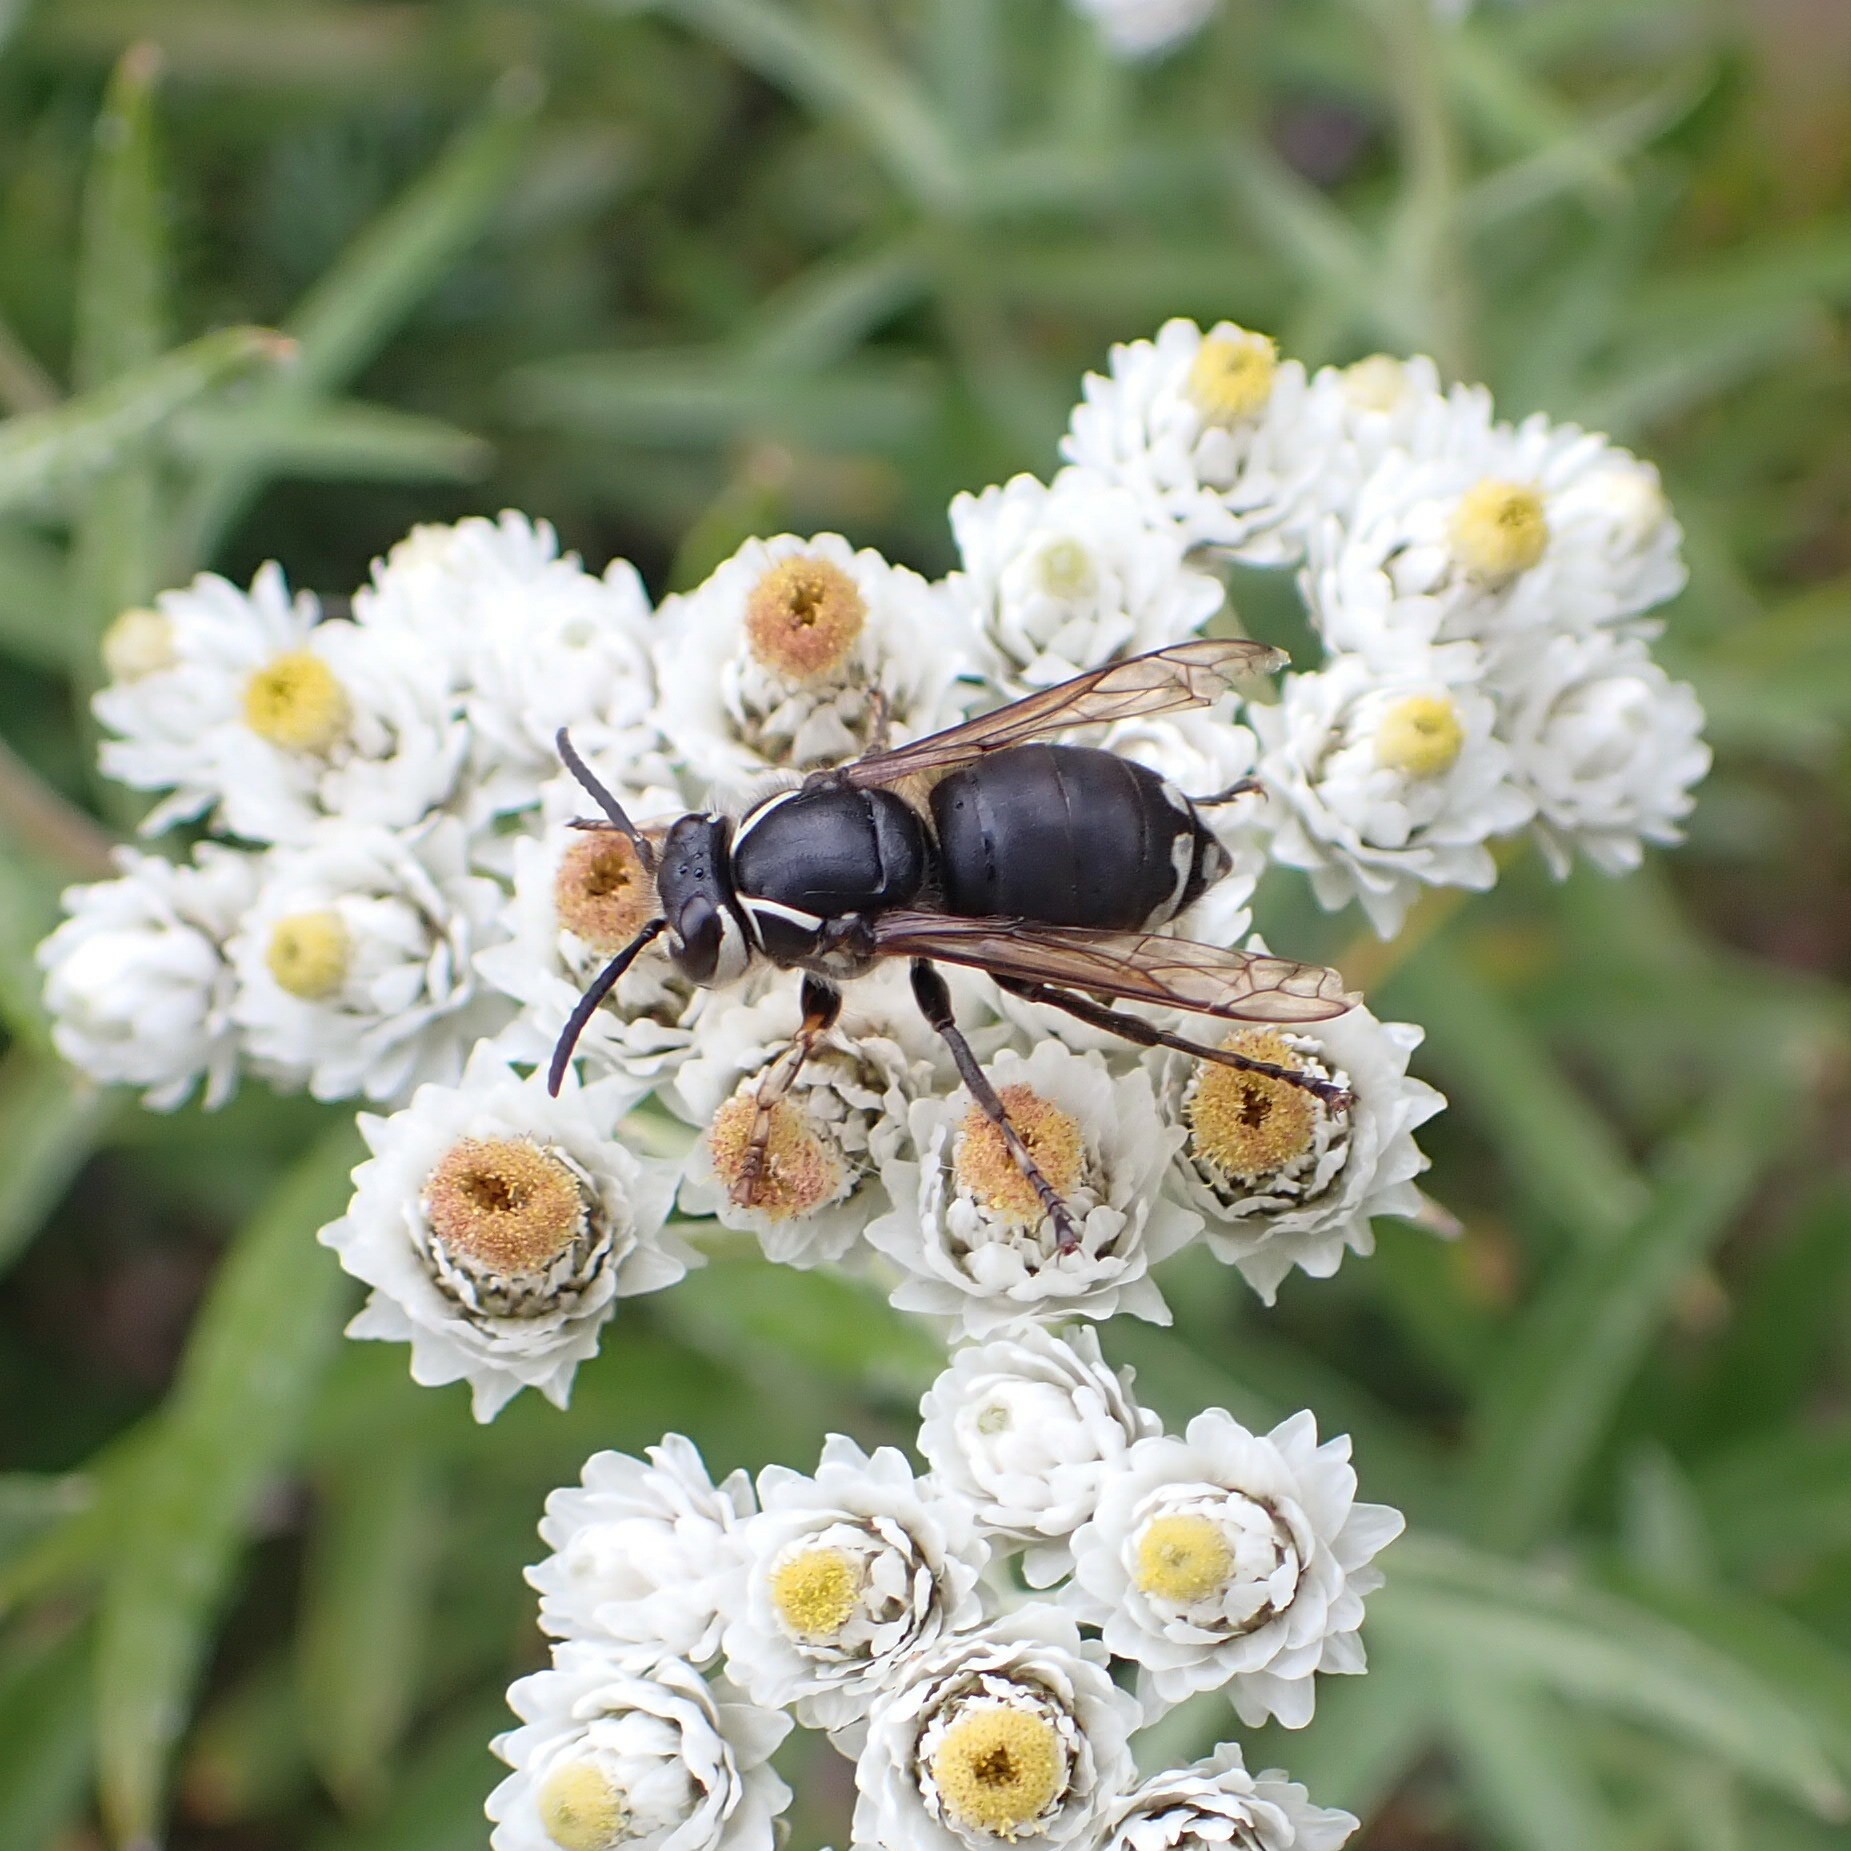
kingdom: Animalia
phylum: Arthropoda
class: Insecta
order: Hymenoptera
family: Vespidae
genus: Dolichovespula
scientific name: Dolichovespula maculata
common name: Bald-faced hornet
